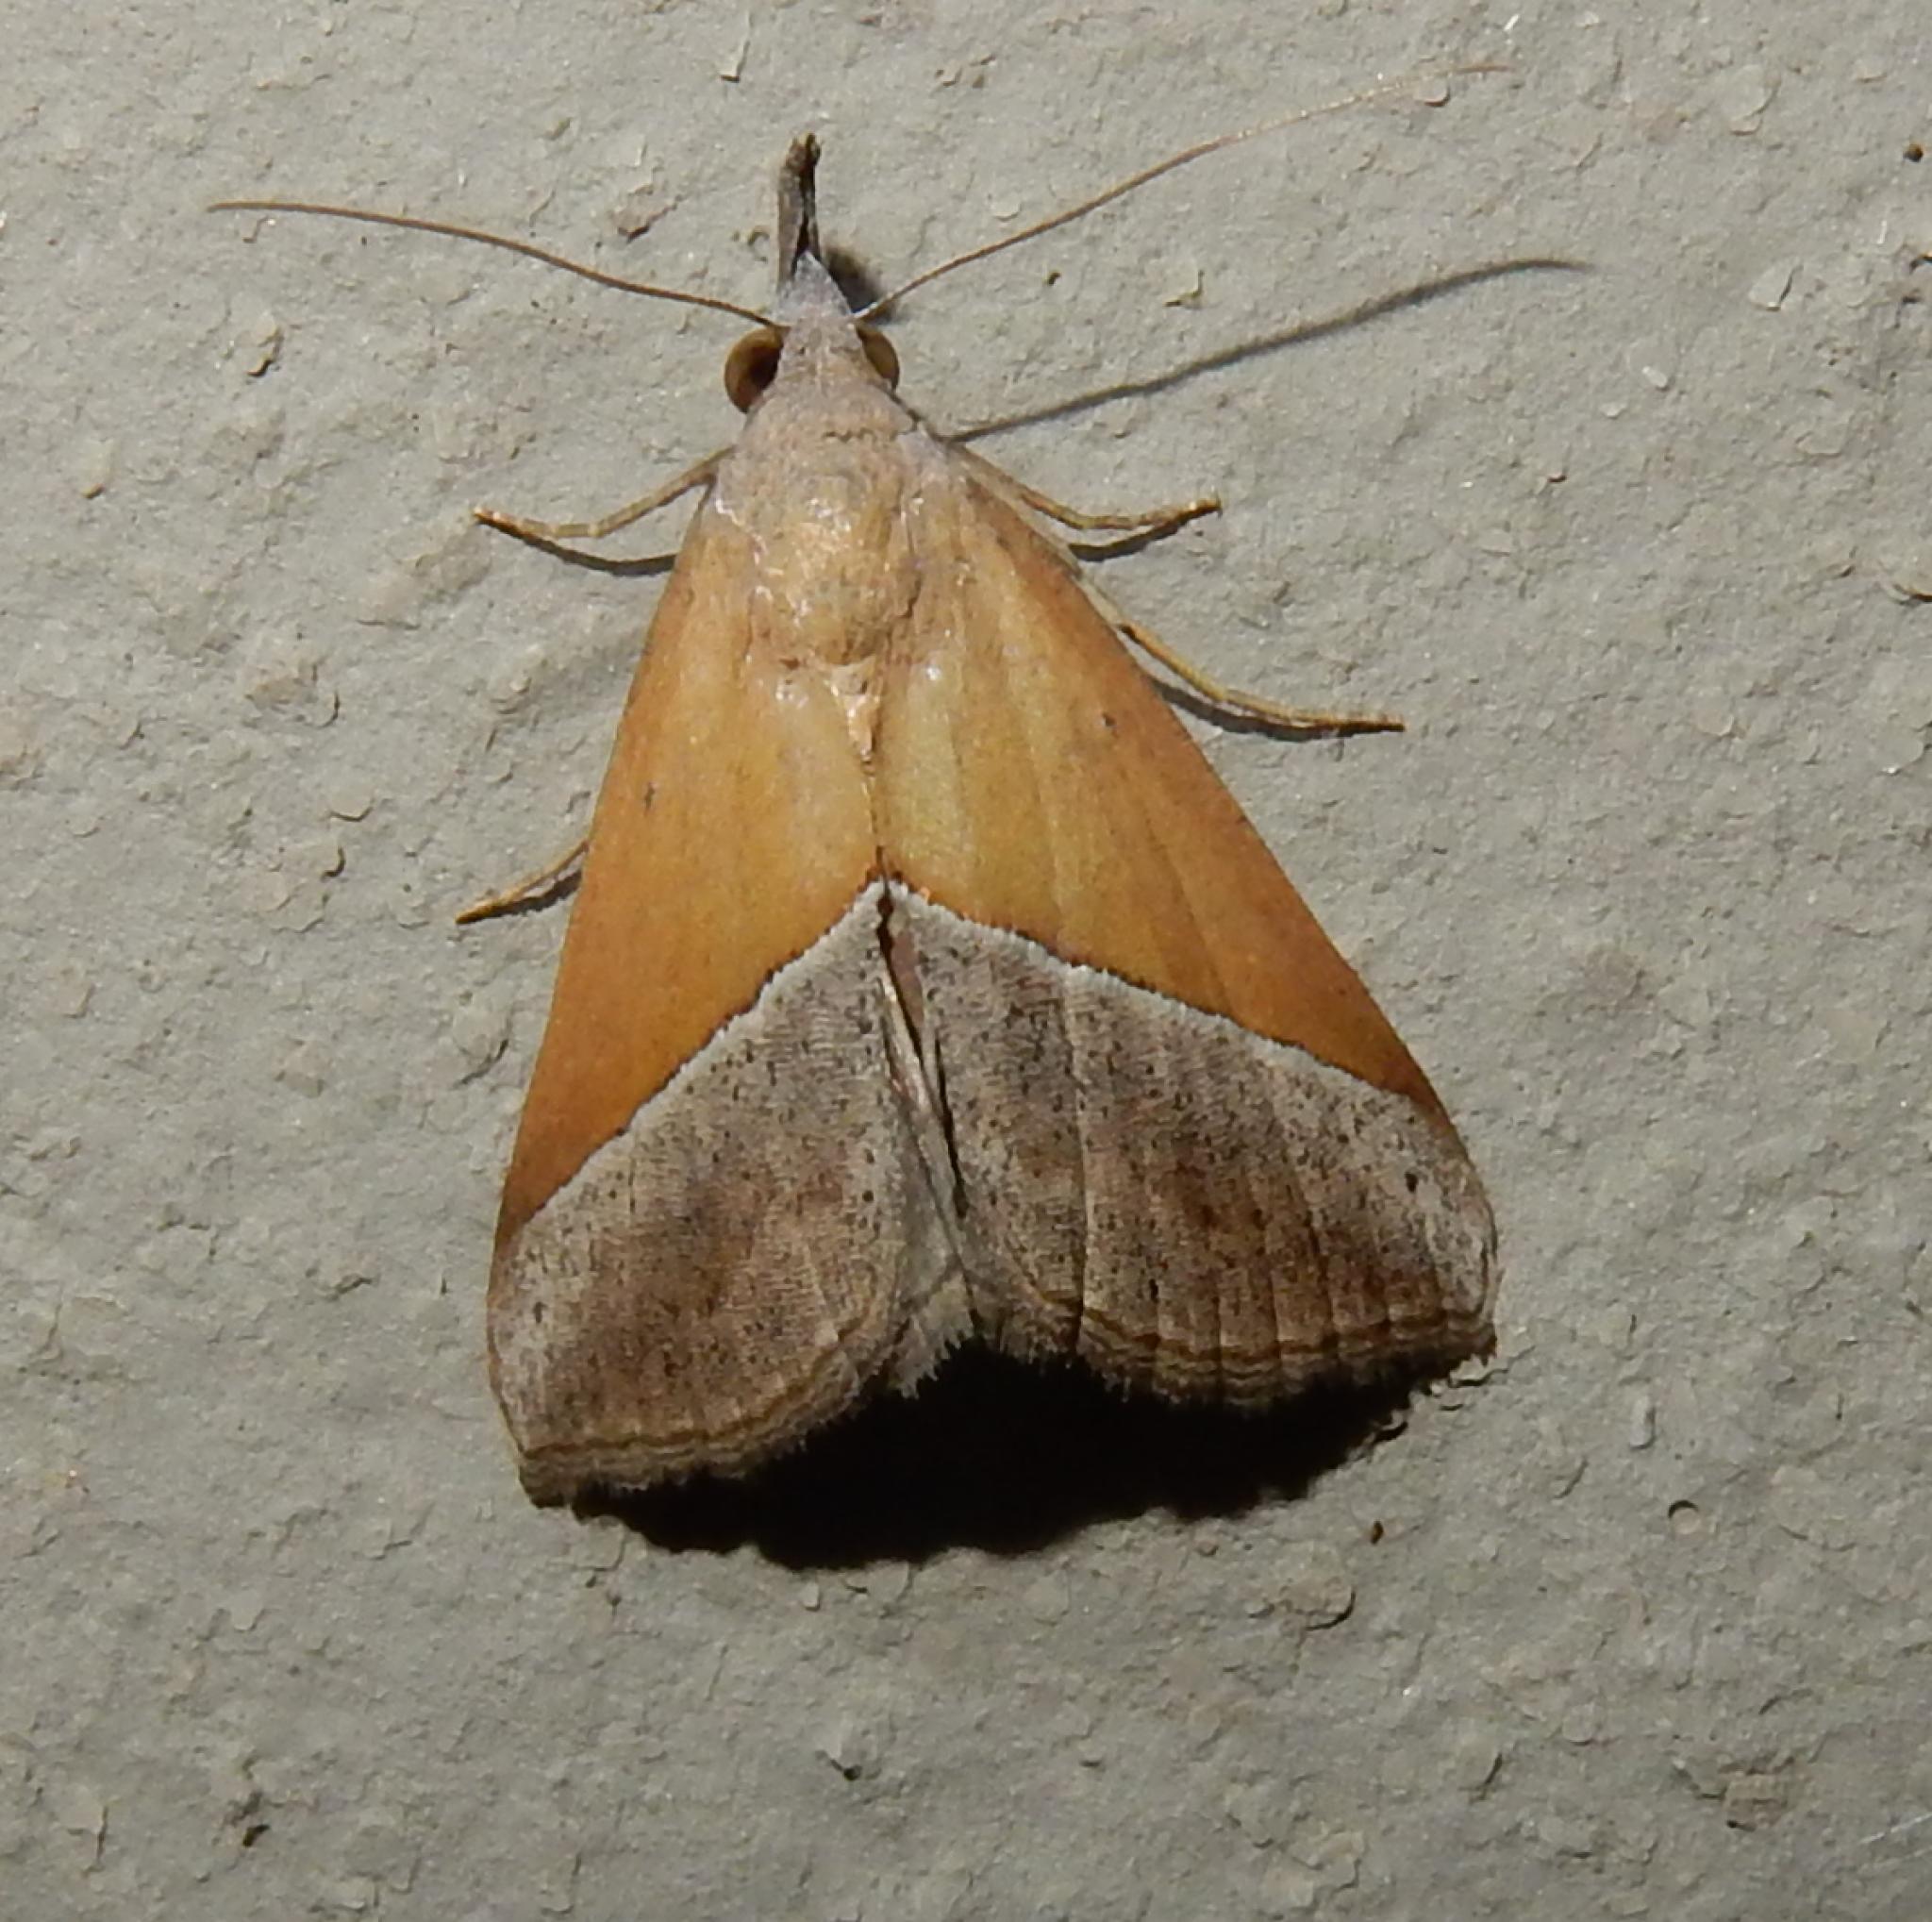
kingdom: Animalia
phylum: Arthropoda
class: Insecta
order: Lepidoptera
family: Erebidae
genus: Hypena
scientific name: Hypena lividalis
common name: Chevron snout
